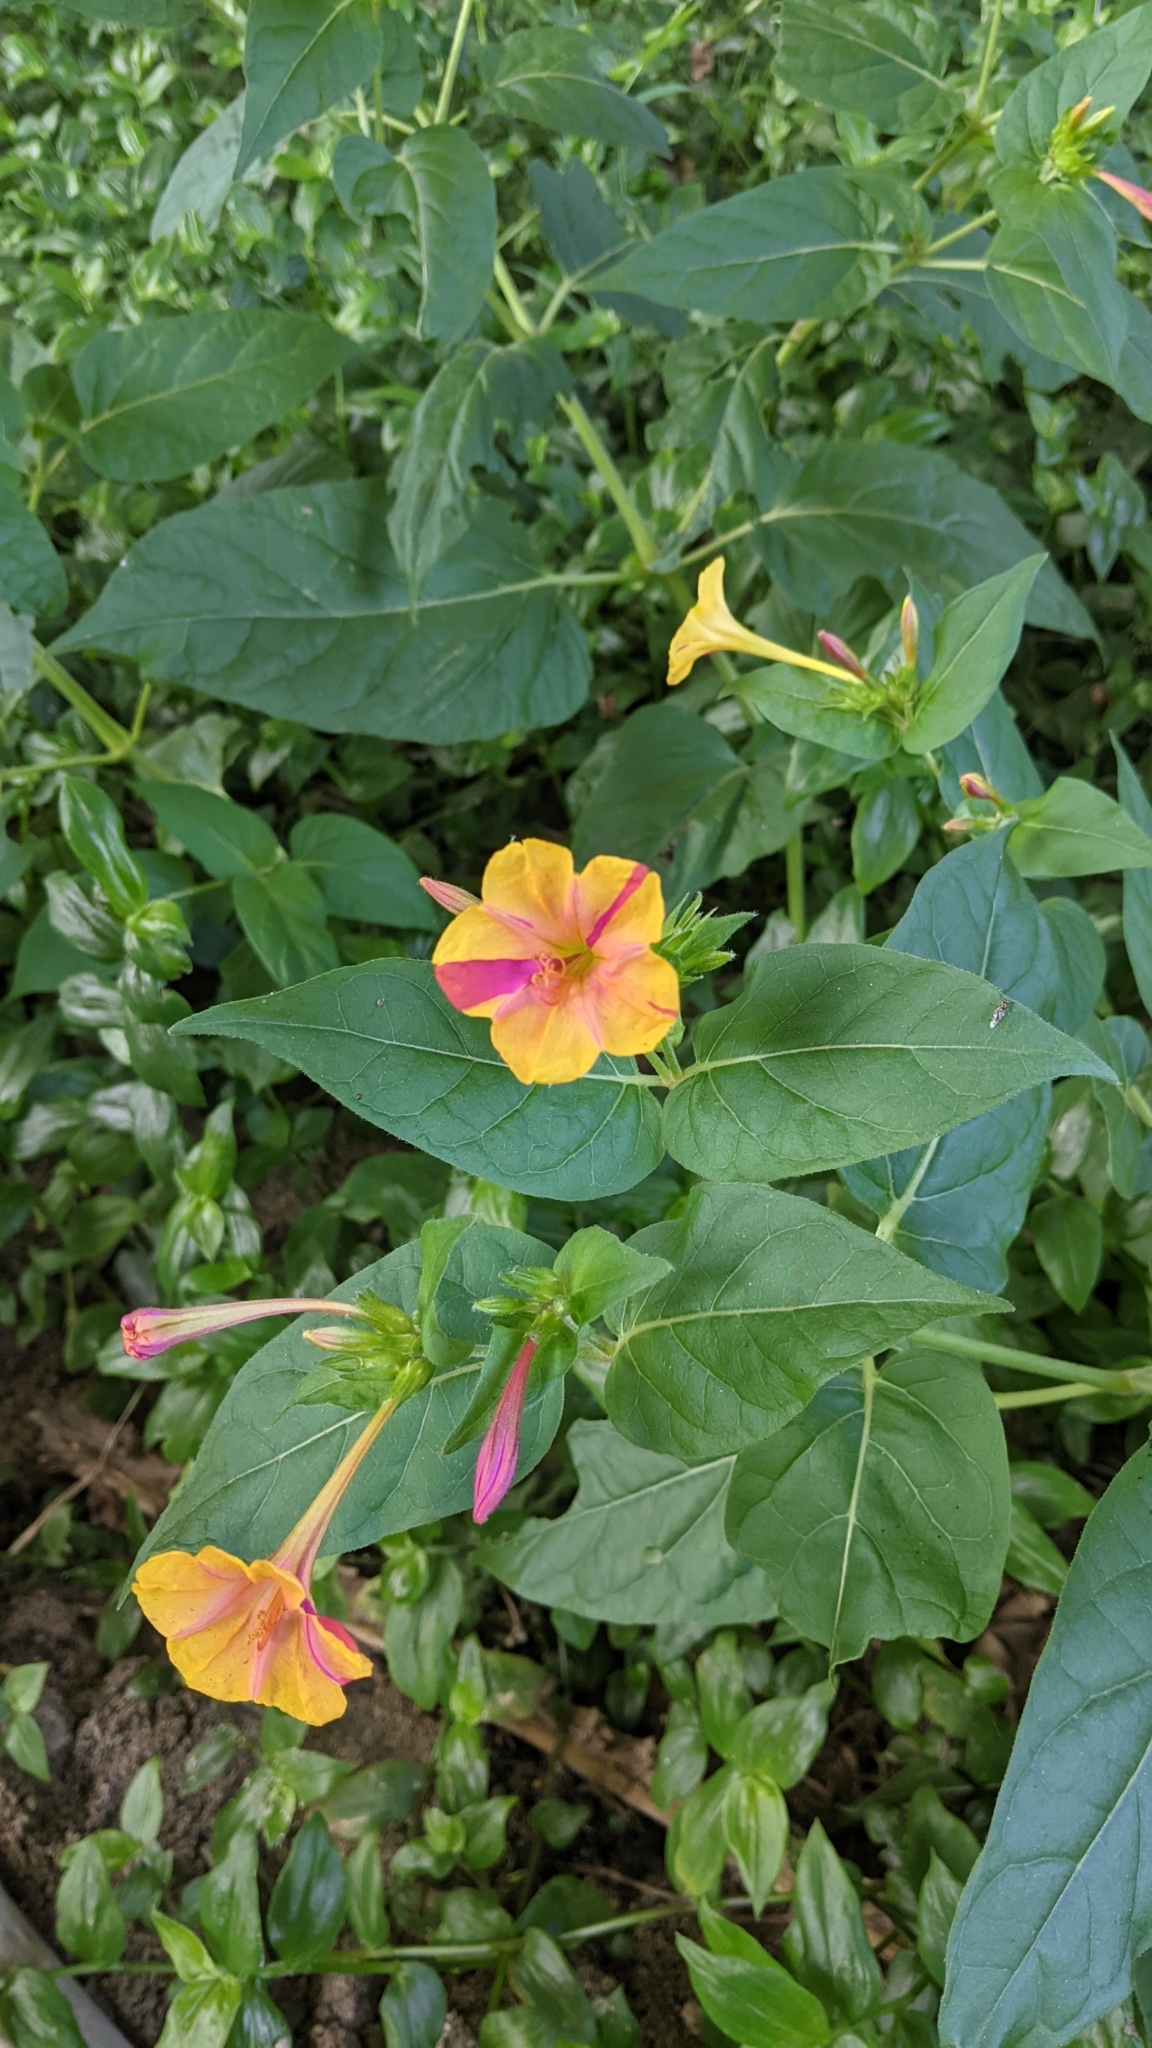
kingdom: Plantae
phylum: Tracheophyta
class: Magnoliopsida
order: Caryophyllales
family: Nyctaginaceae
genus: Mirabilis
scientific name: Mirabilis jalapa
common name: Marvel-of-peru
